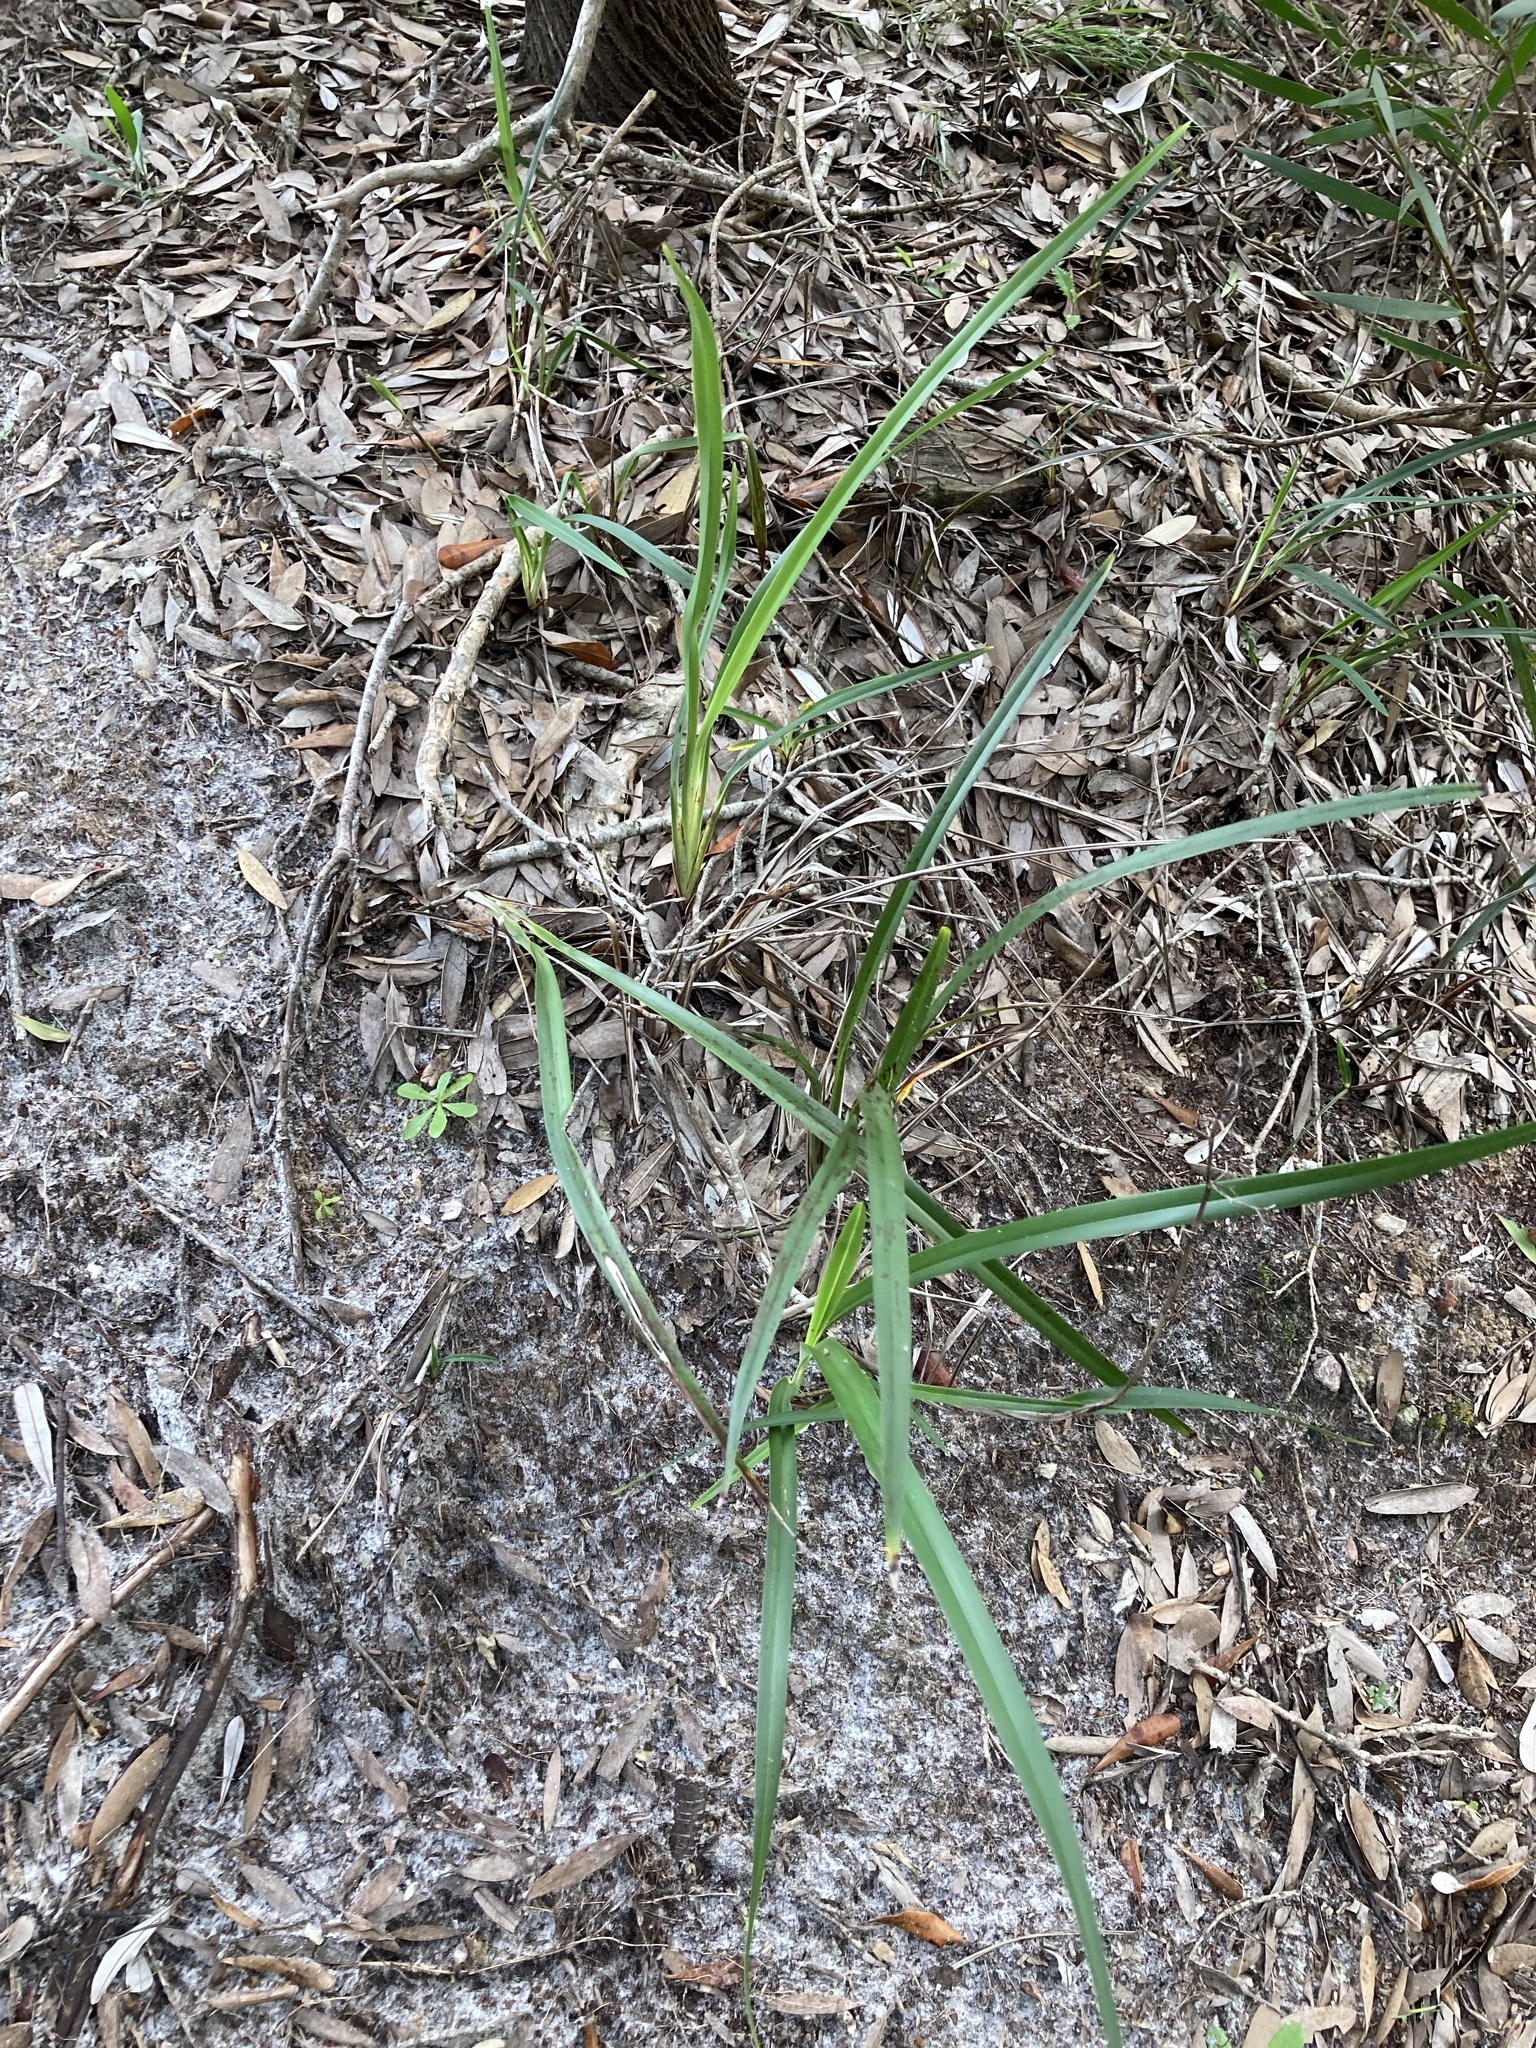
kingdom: Plantae
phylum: Tracheophyta
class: Liliopsida
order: Asparagales
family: Asphodelaceae
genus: Dianella
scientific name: Dianella caerulea
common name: Blue flax-lily
